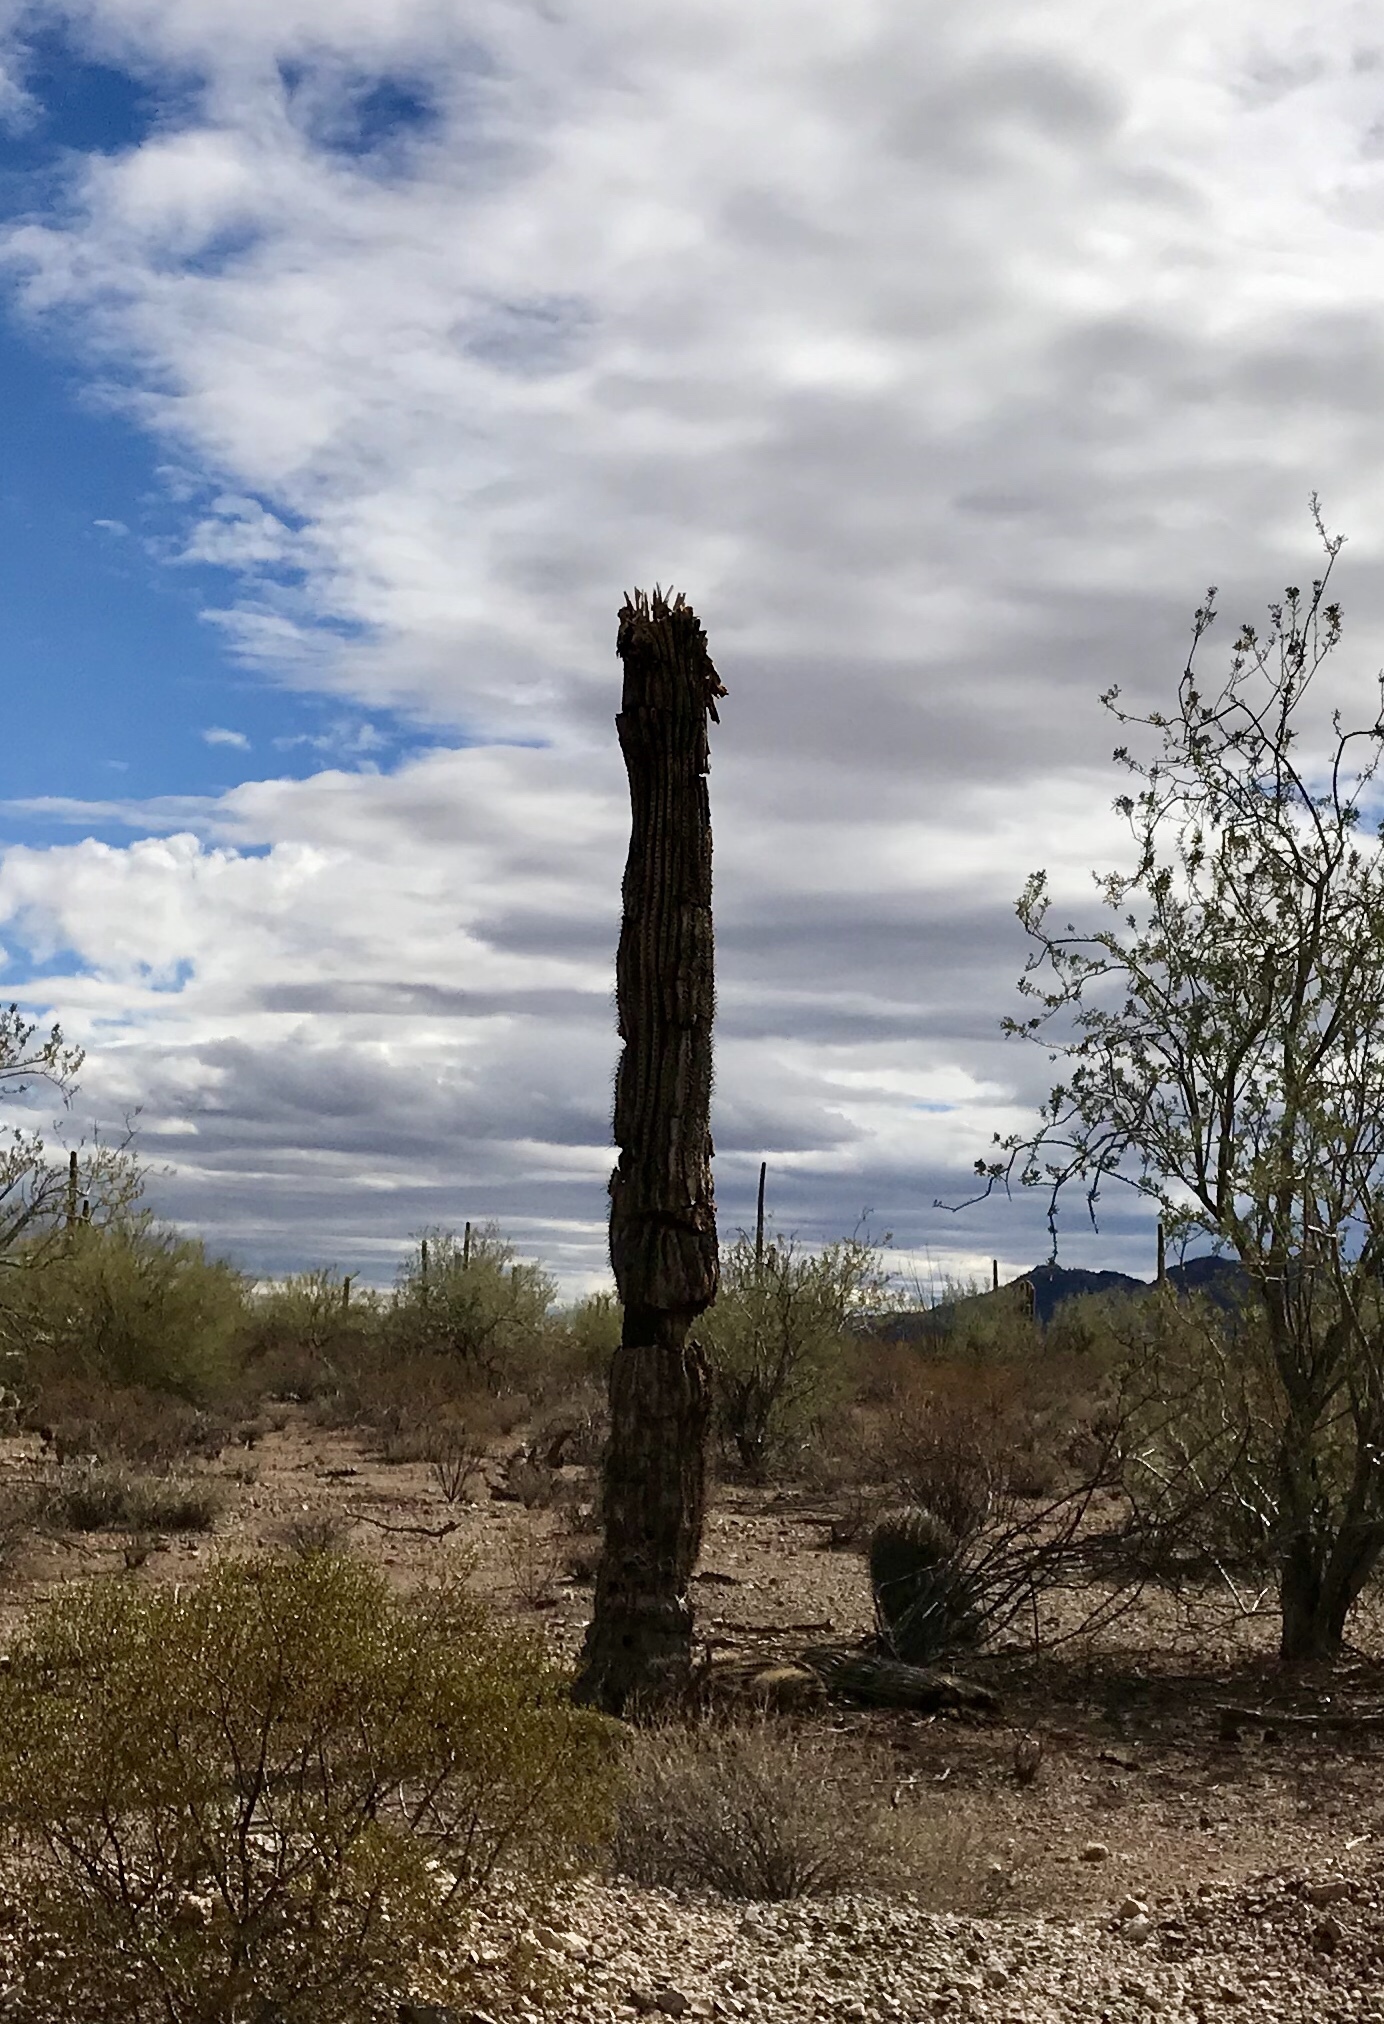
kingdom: Plantae
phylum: Tracheophyta
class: Magnoliopsida
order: Caryophyllales
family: Cactaceae
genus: Carnegiea
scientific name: Carnegiea gigantea
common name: Saguaro
